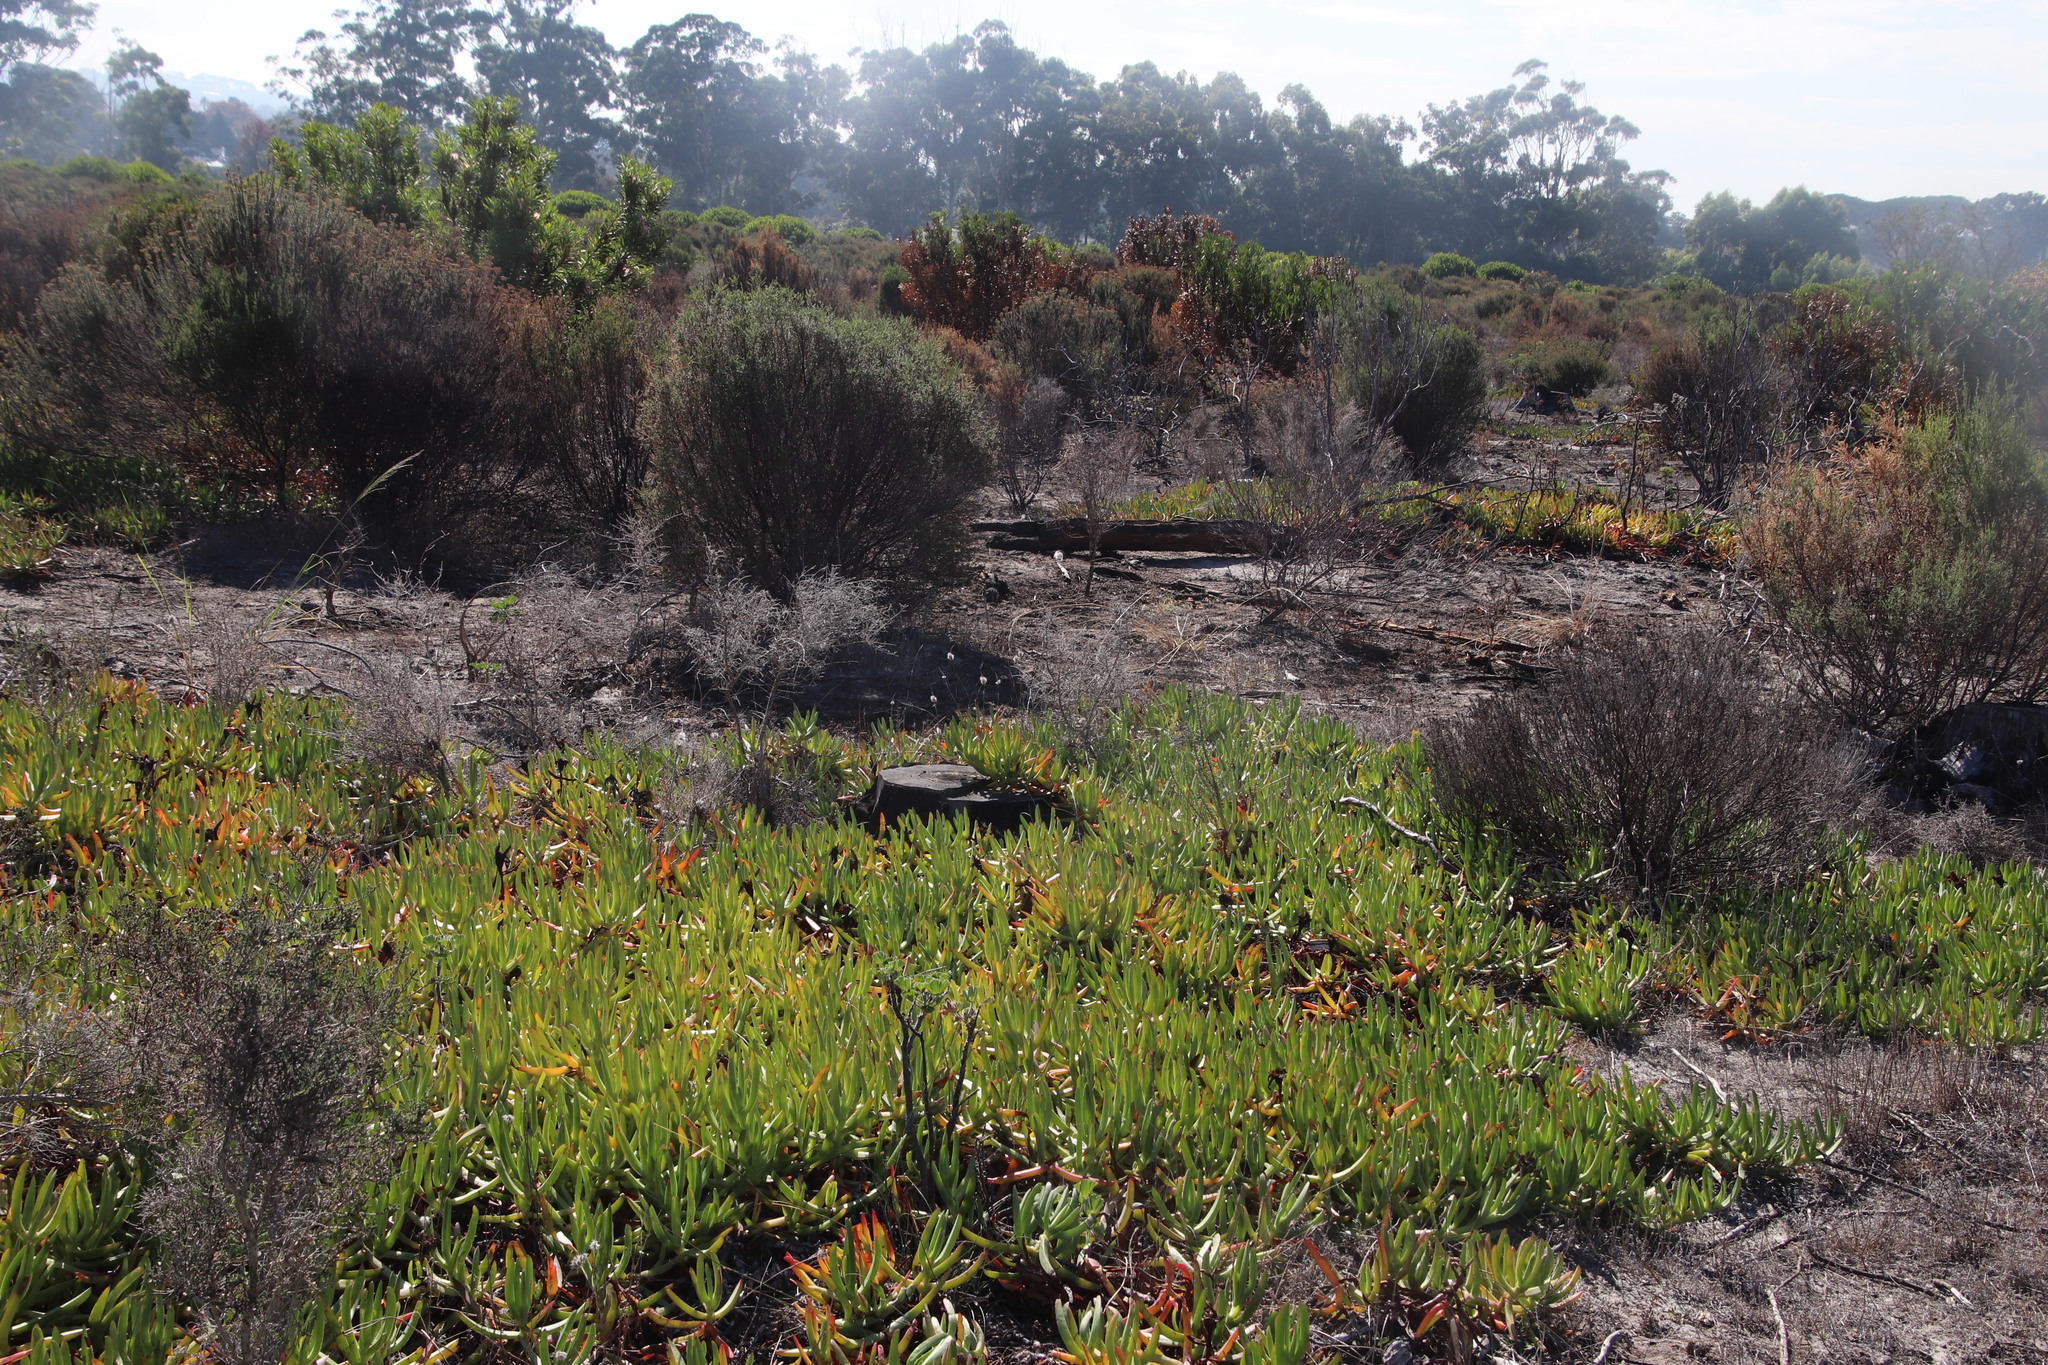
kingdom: Plantae
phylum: Tracheophyta
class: Magnoliopsida
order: Caryophyllales
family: Aizoaceae
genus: Carpobrotus
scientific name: Carpobrotus edulis
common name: Hottentot-fig
